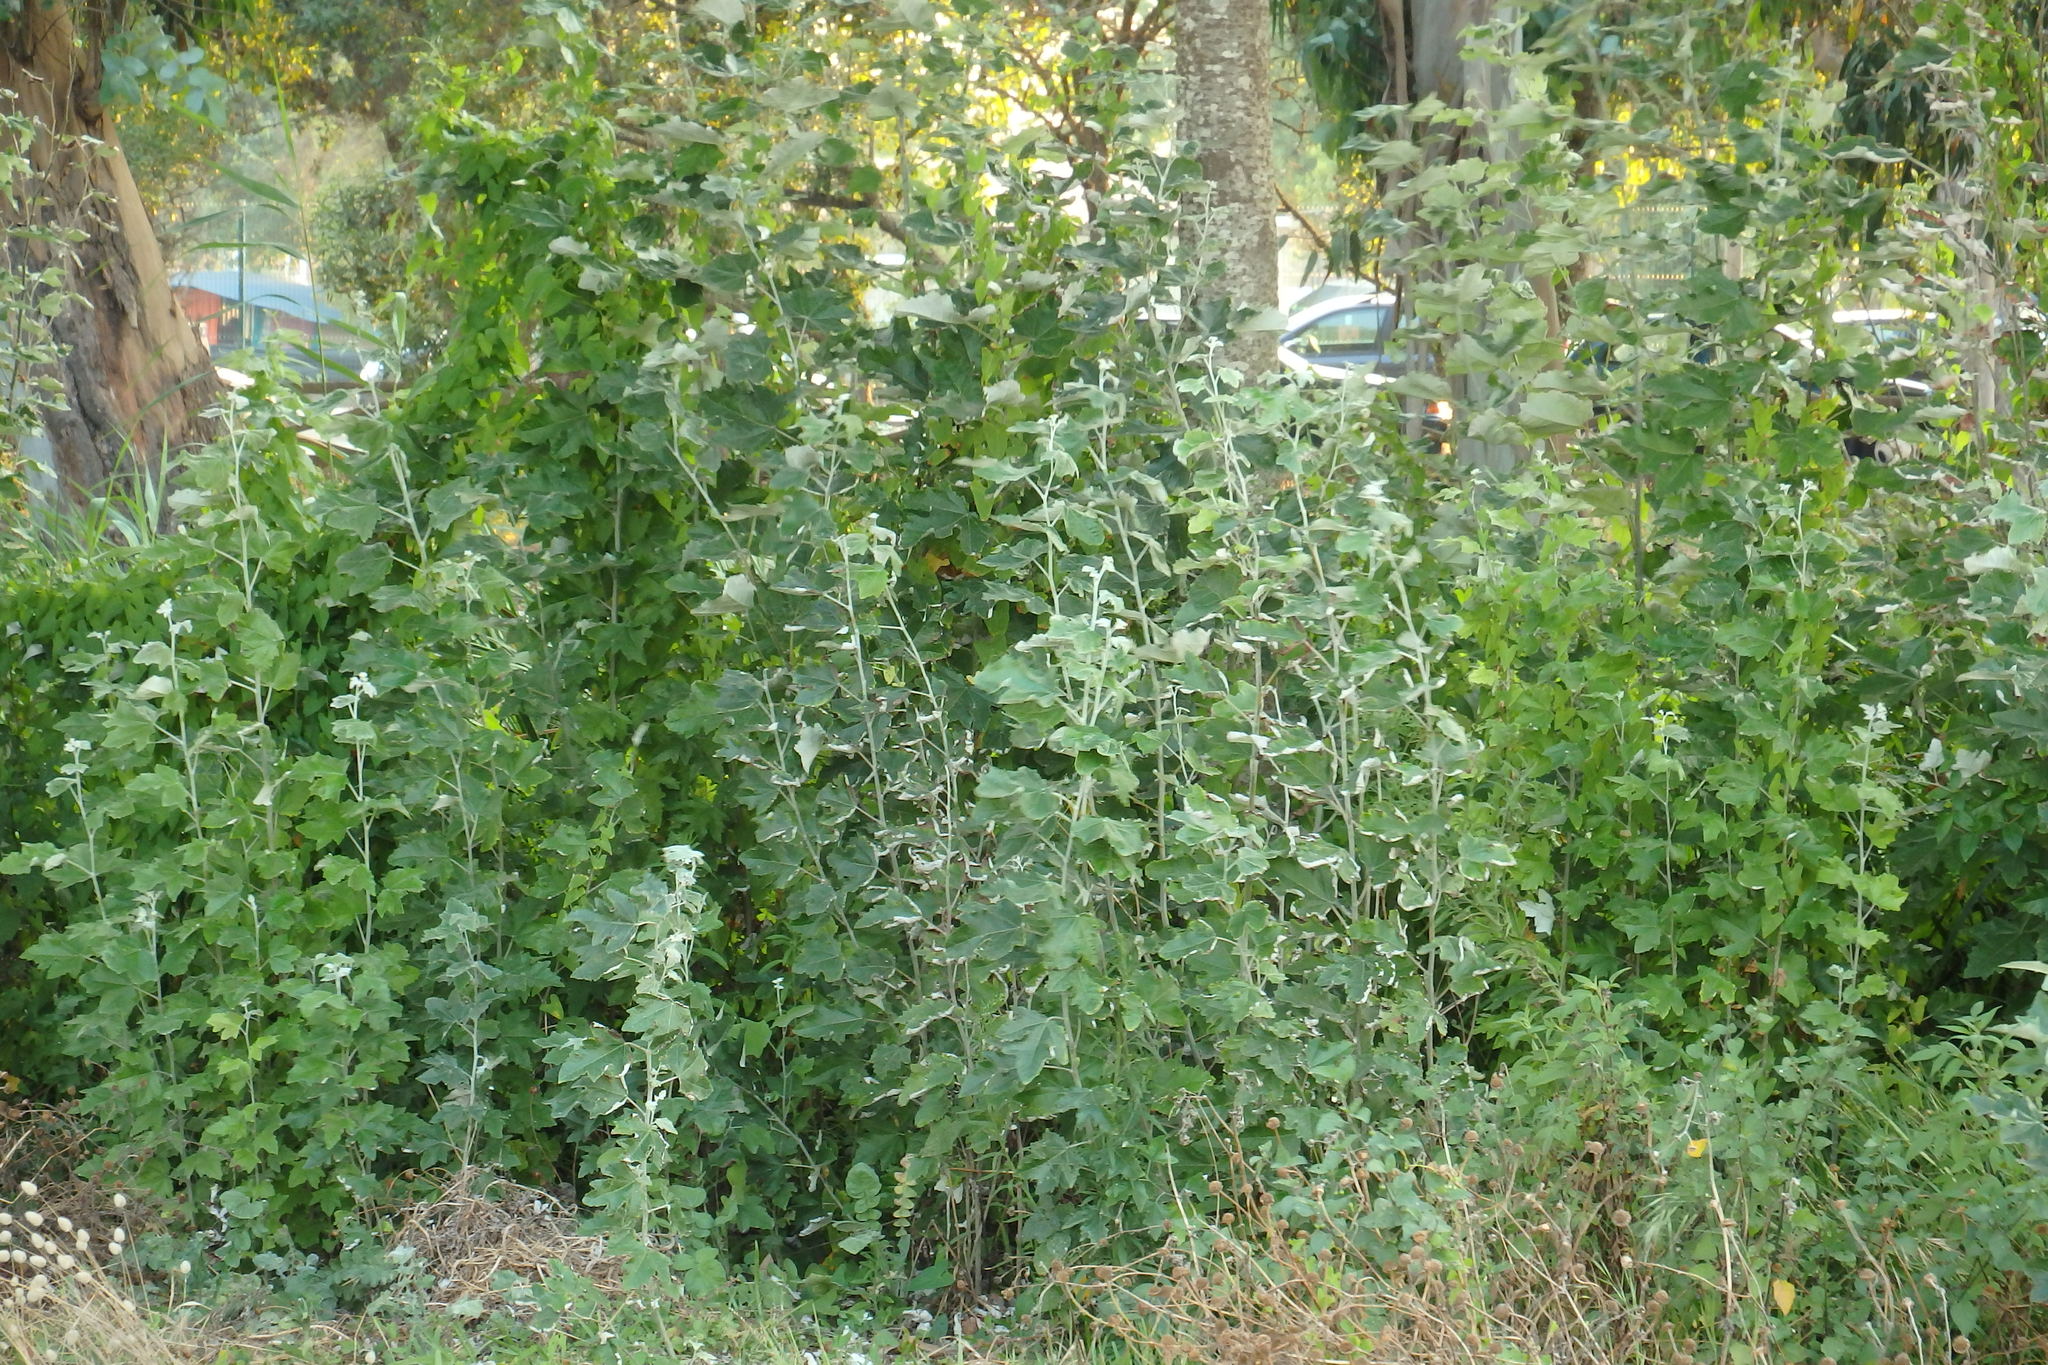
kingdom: Plantae
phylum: Tracheophyta
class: Magnoliopsida
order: Malpighiales
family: Salicaceae
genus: Populus
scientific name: Populus alba
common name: White poplar
